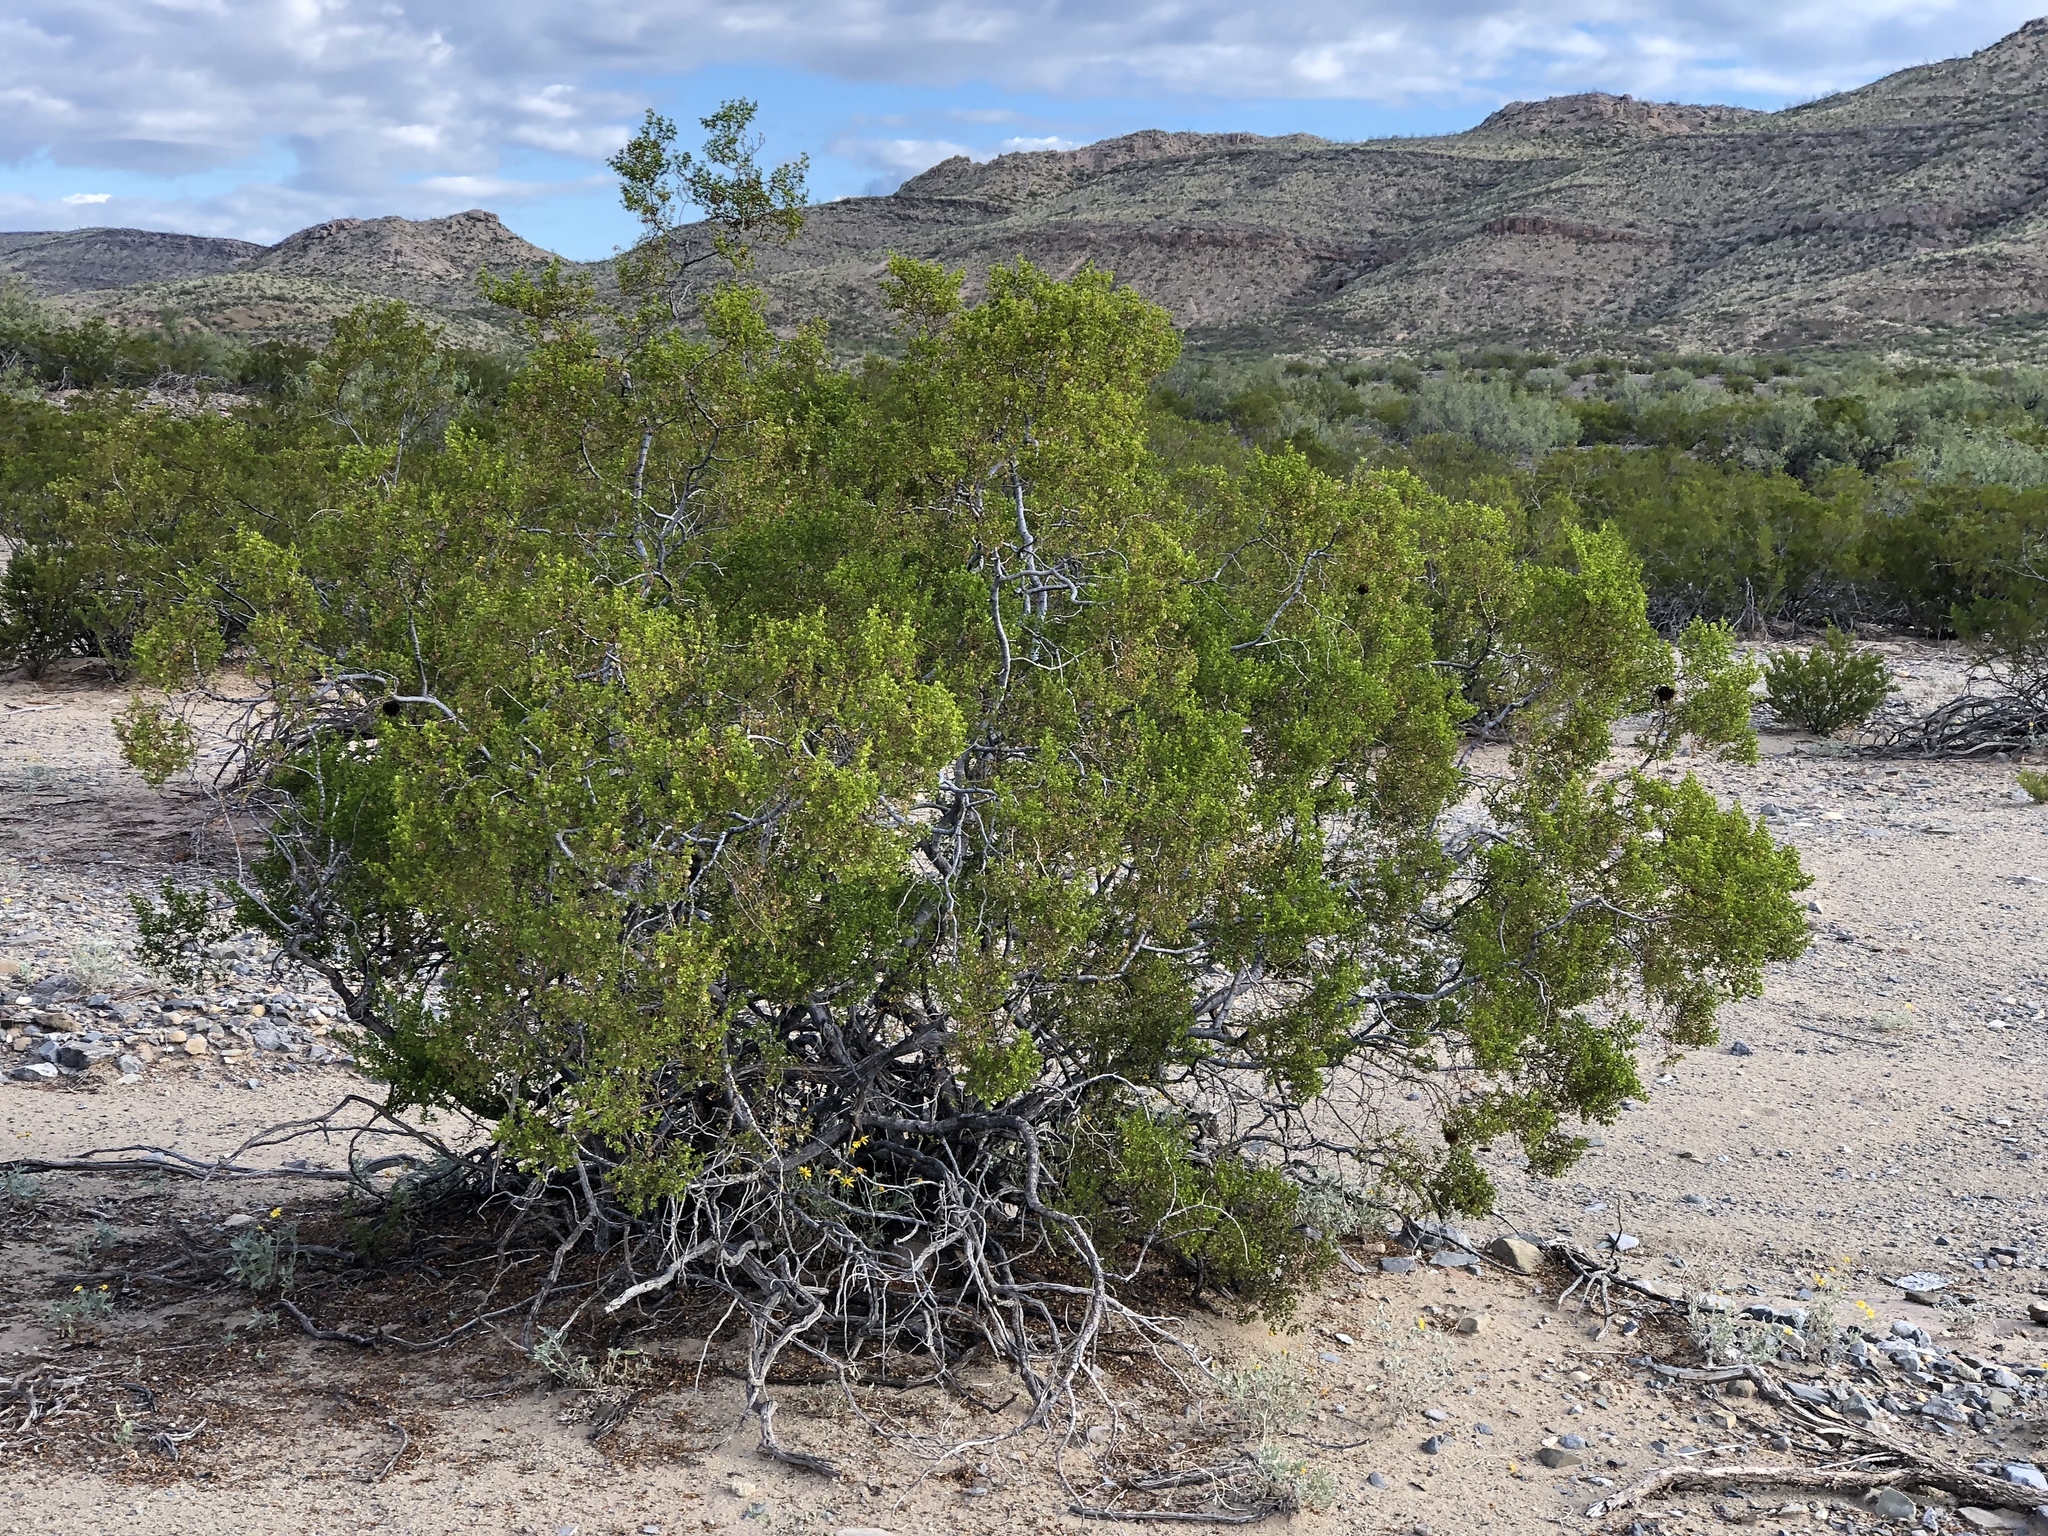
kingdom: Plantae
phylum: Tracheophyta
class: Magnoliopsida
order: Zygophyllales
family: Zygophyllaceae
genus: Larrea
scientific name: Larrea tridentata
